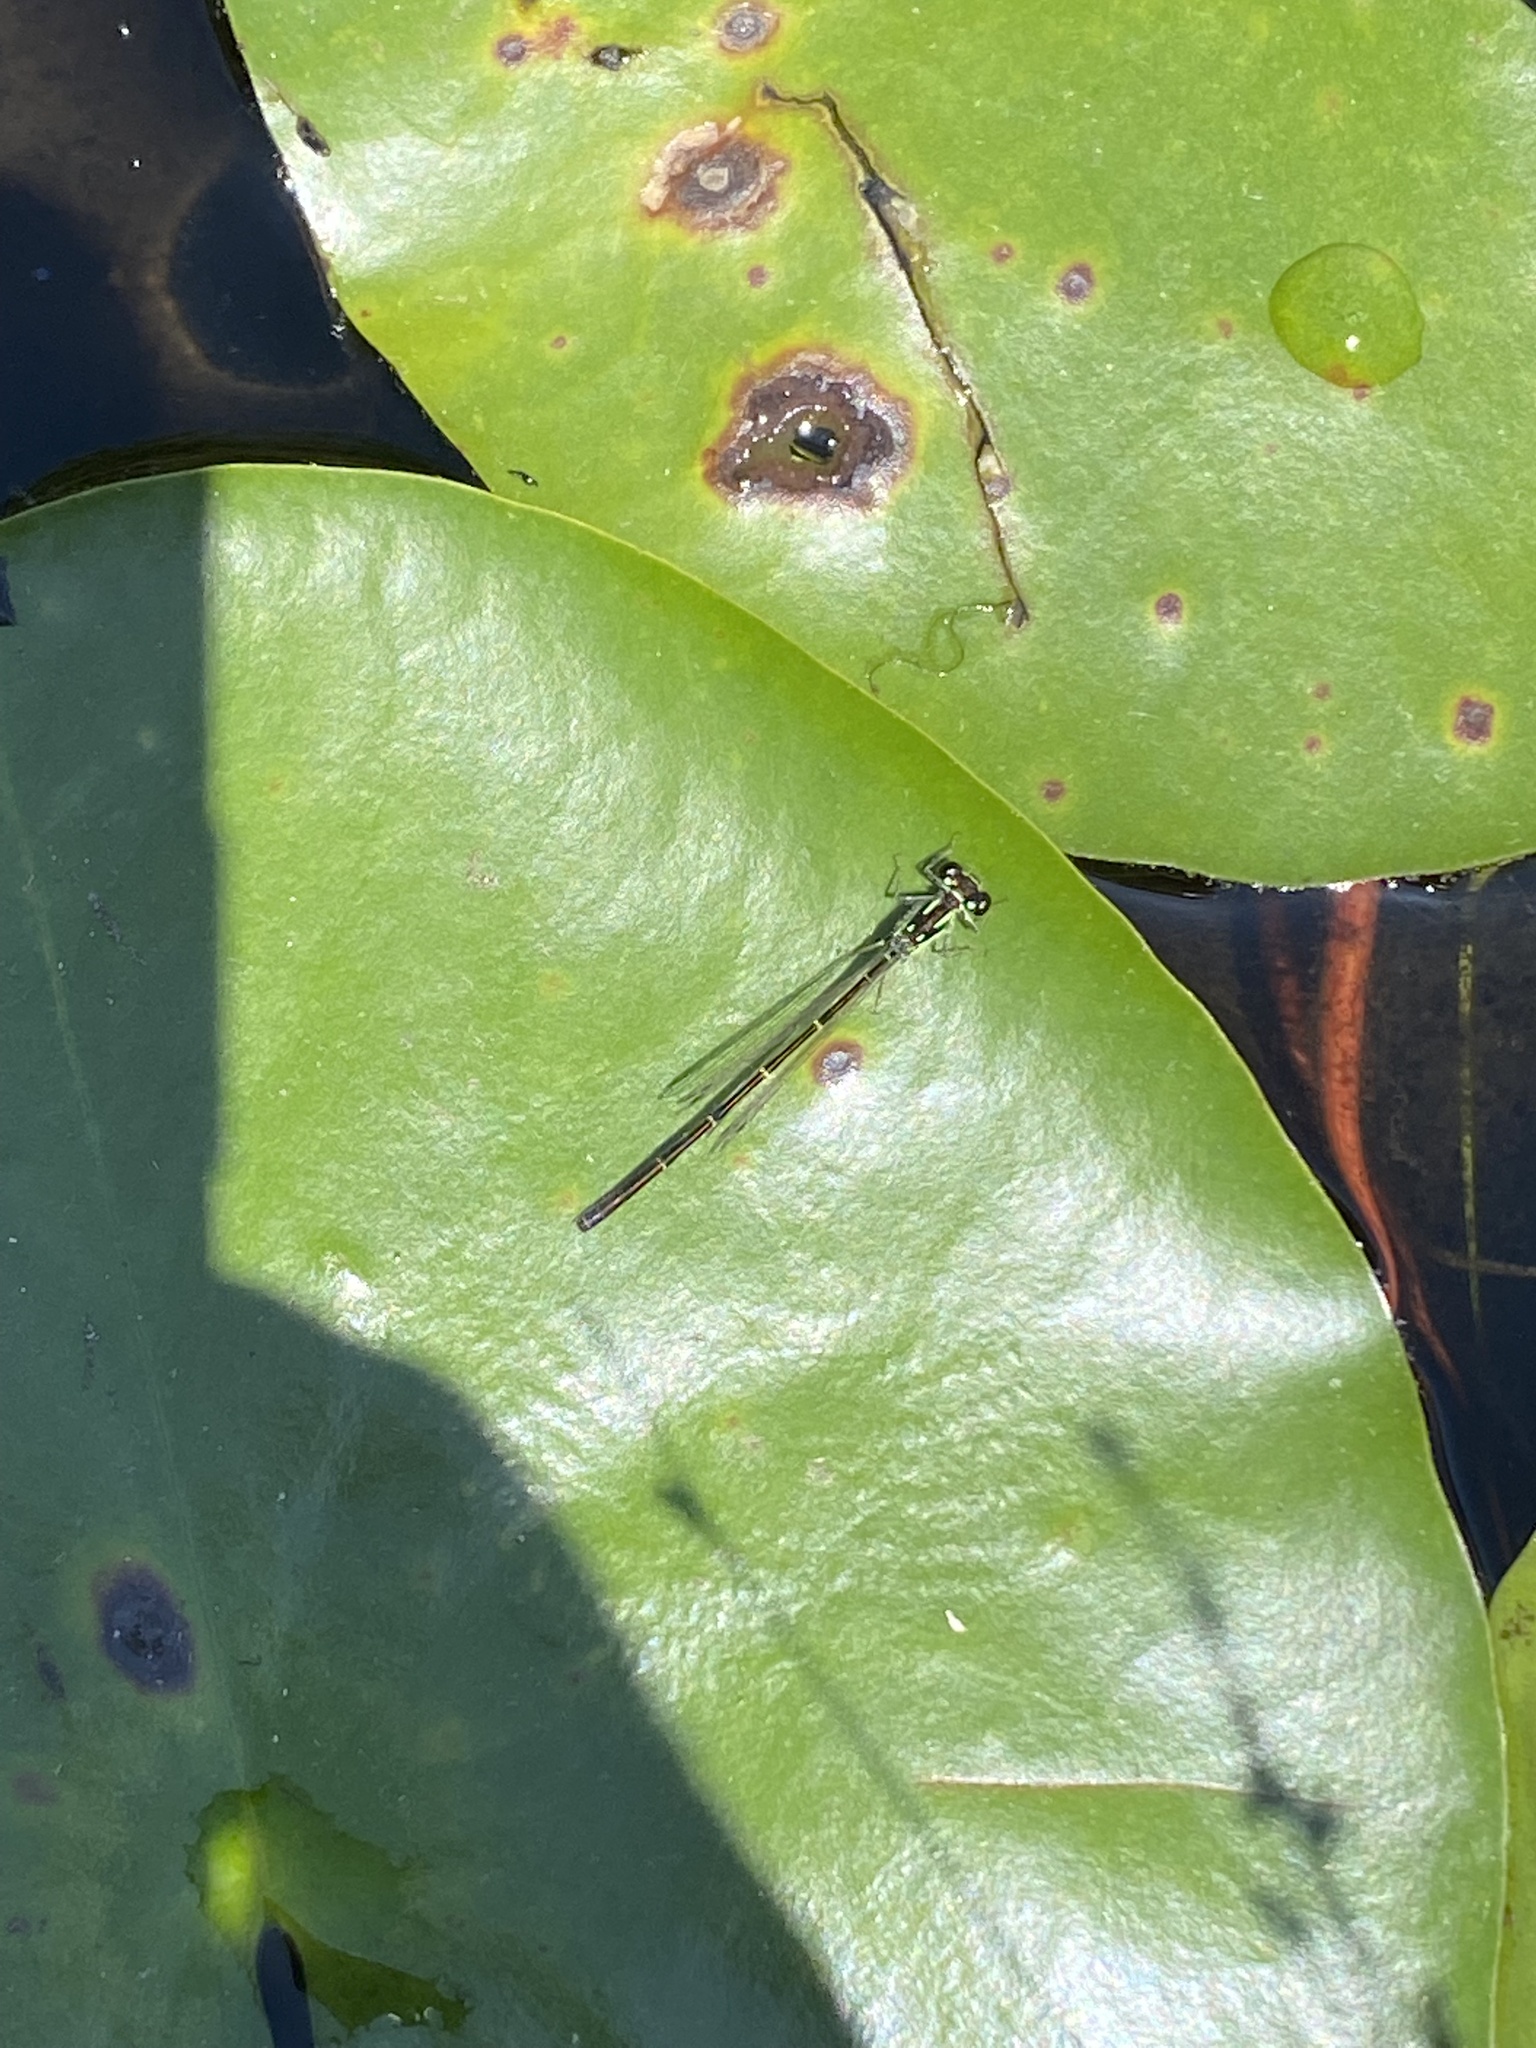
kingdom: Animalia
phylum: Arthropoda
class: Insecta
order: Odonata
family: Coenagrionidae
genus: Ischnura
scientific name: Ischnura posita
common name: Fragile forktail
